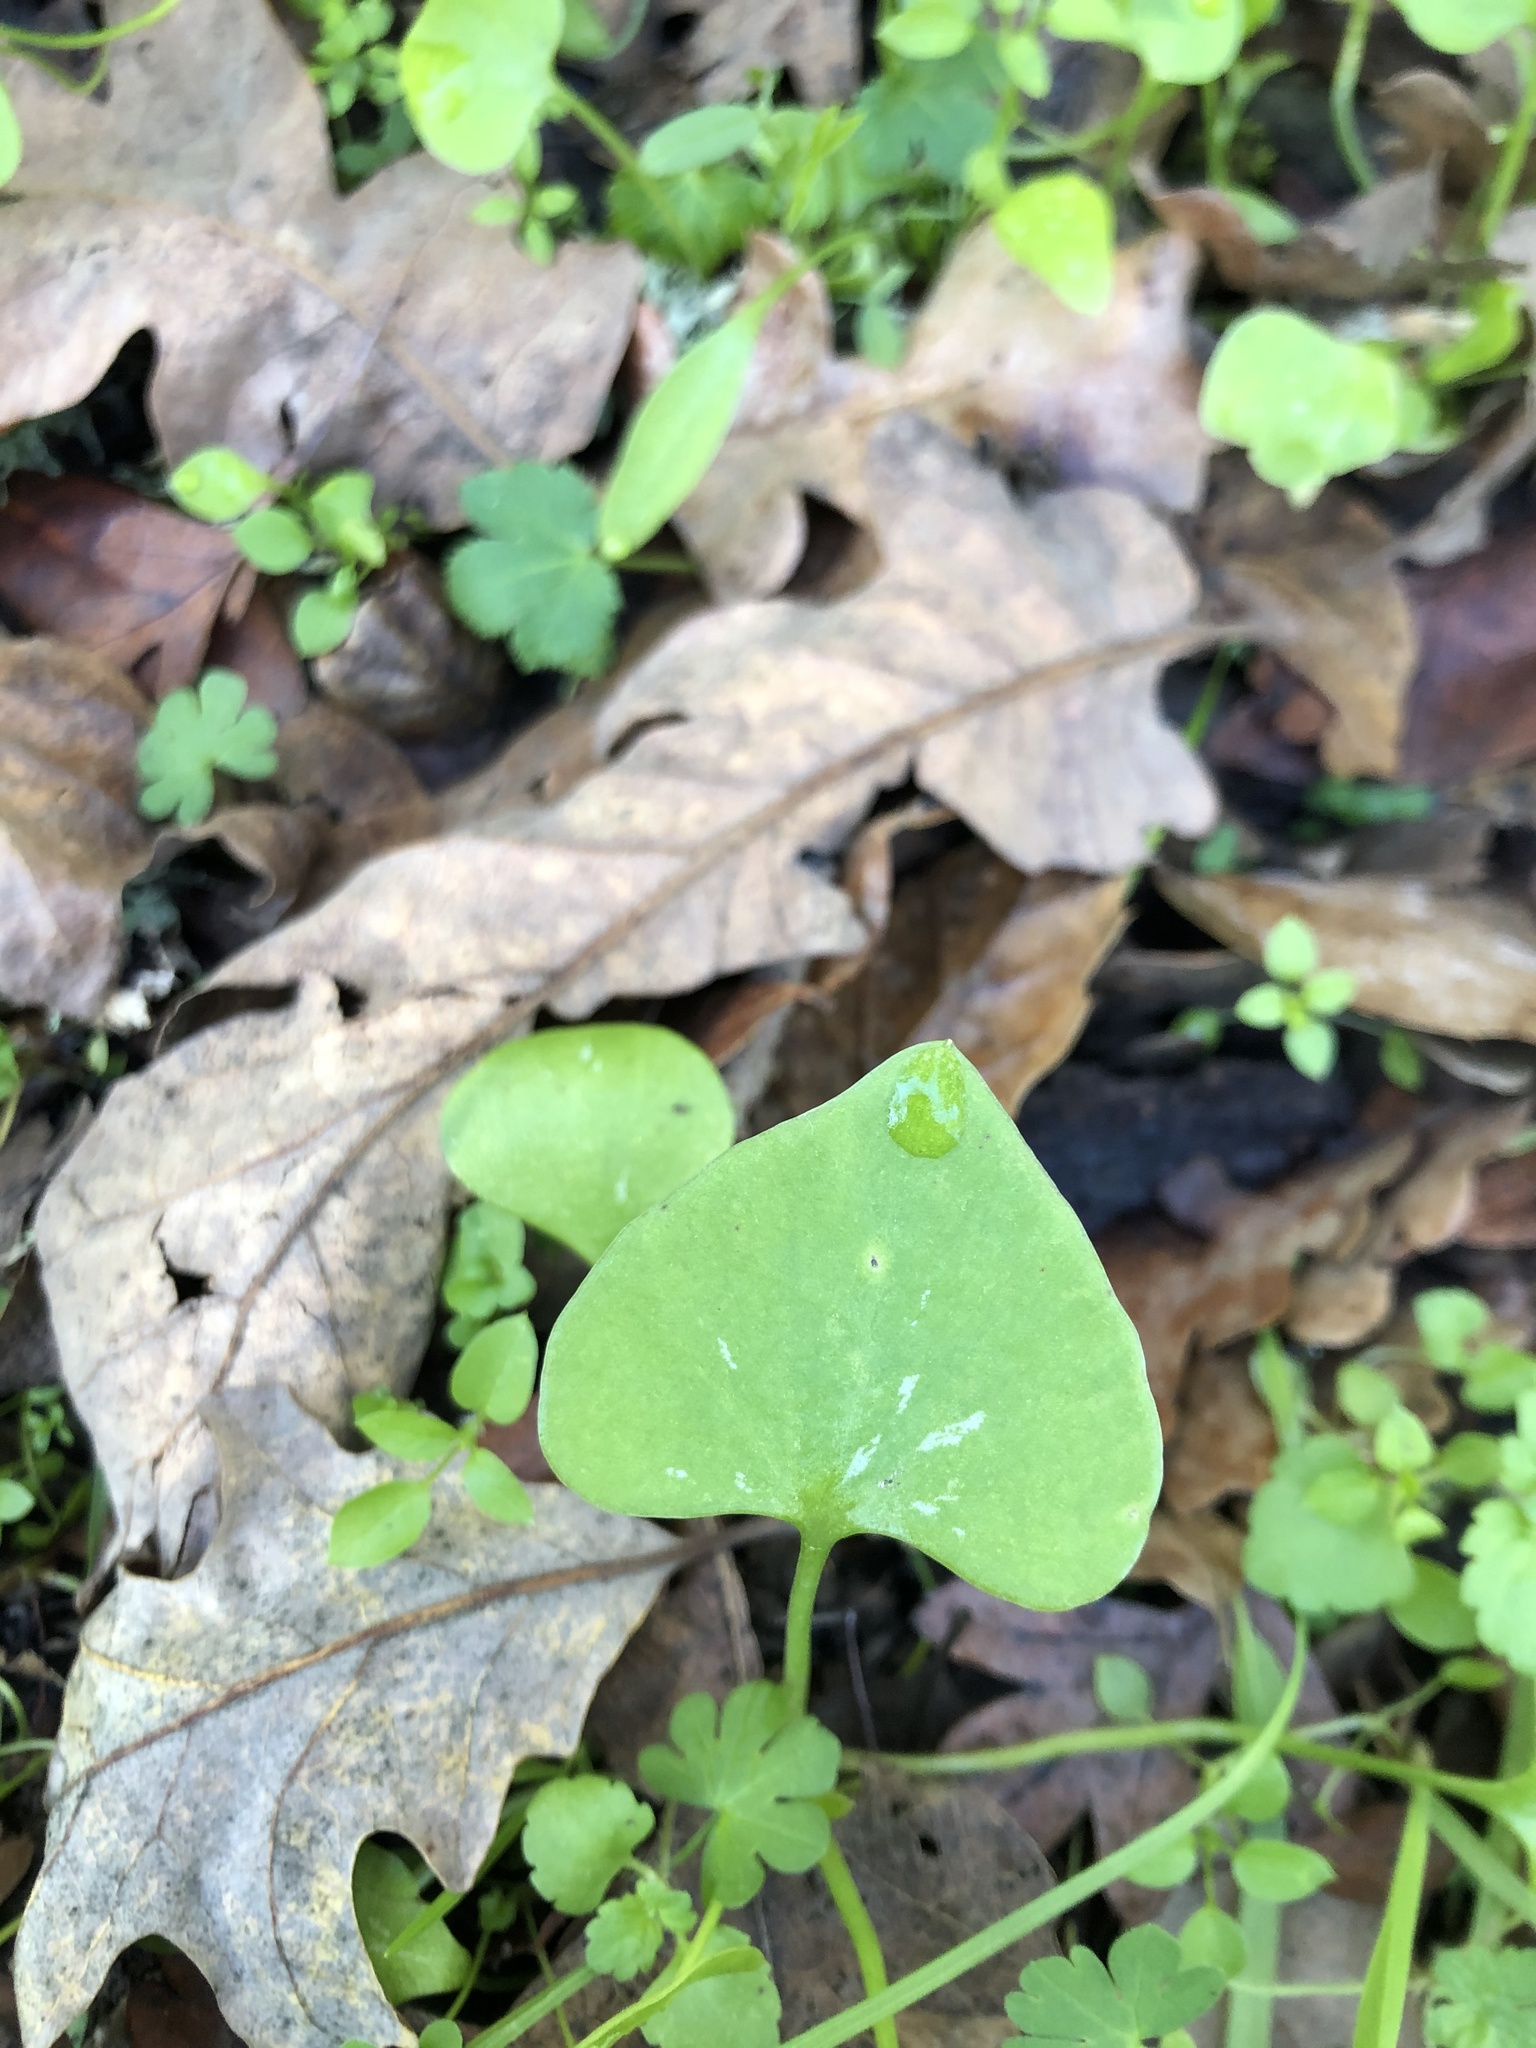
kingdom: Plantae
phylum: Tracheophyta
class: Magnoliopsida
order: Caryophyllales
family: Montiaceae
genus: Claytonia
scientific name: Claytonia perfoliata
